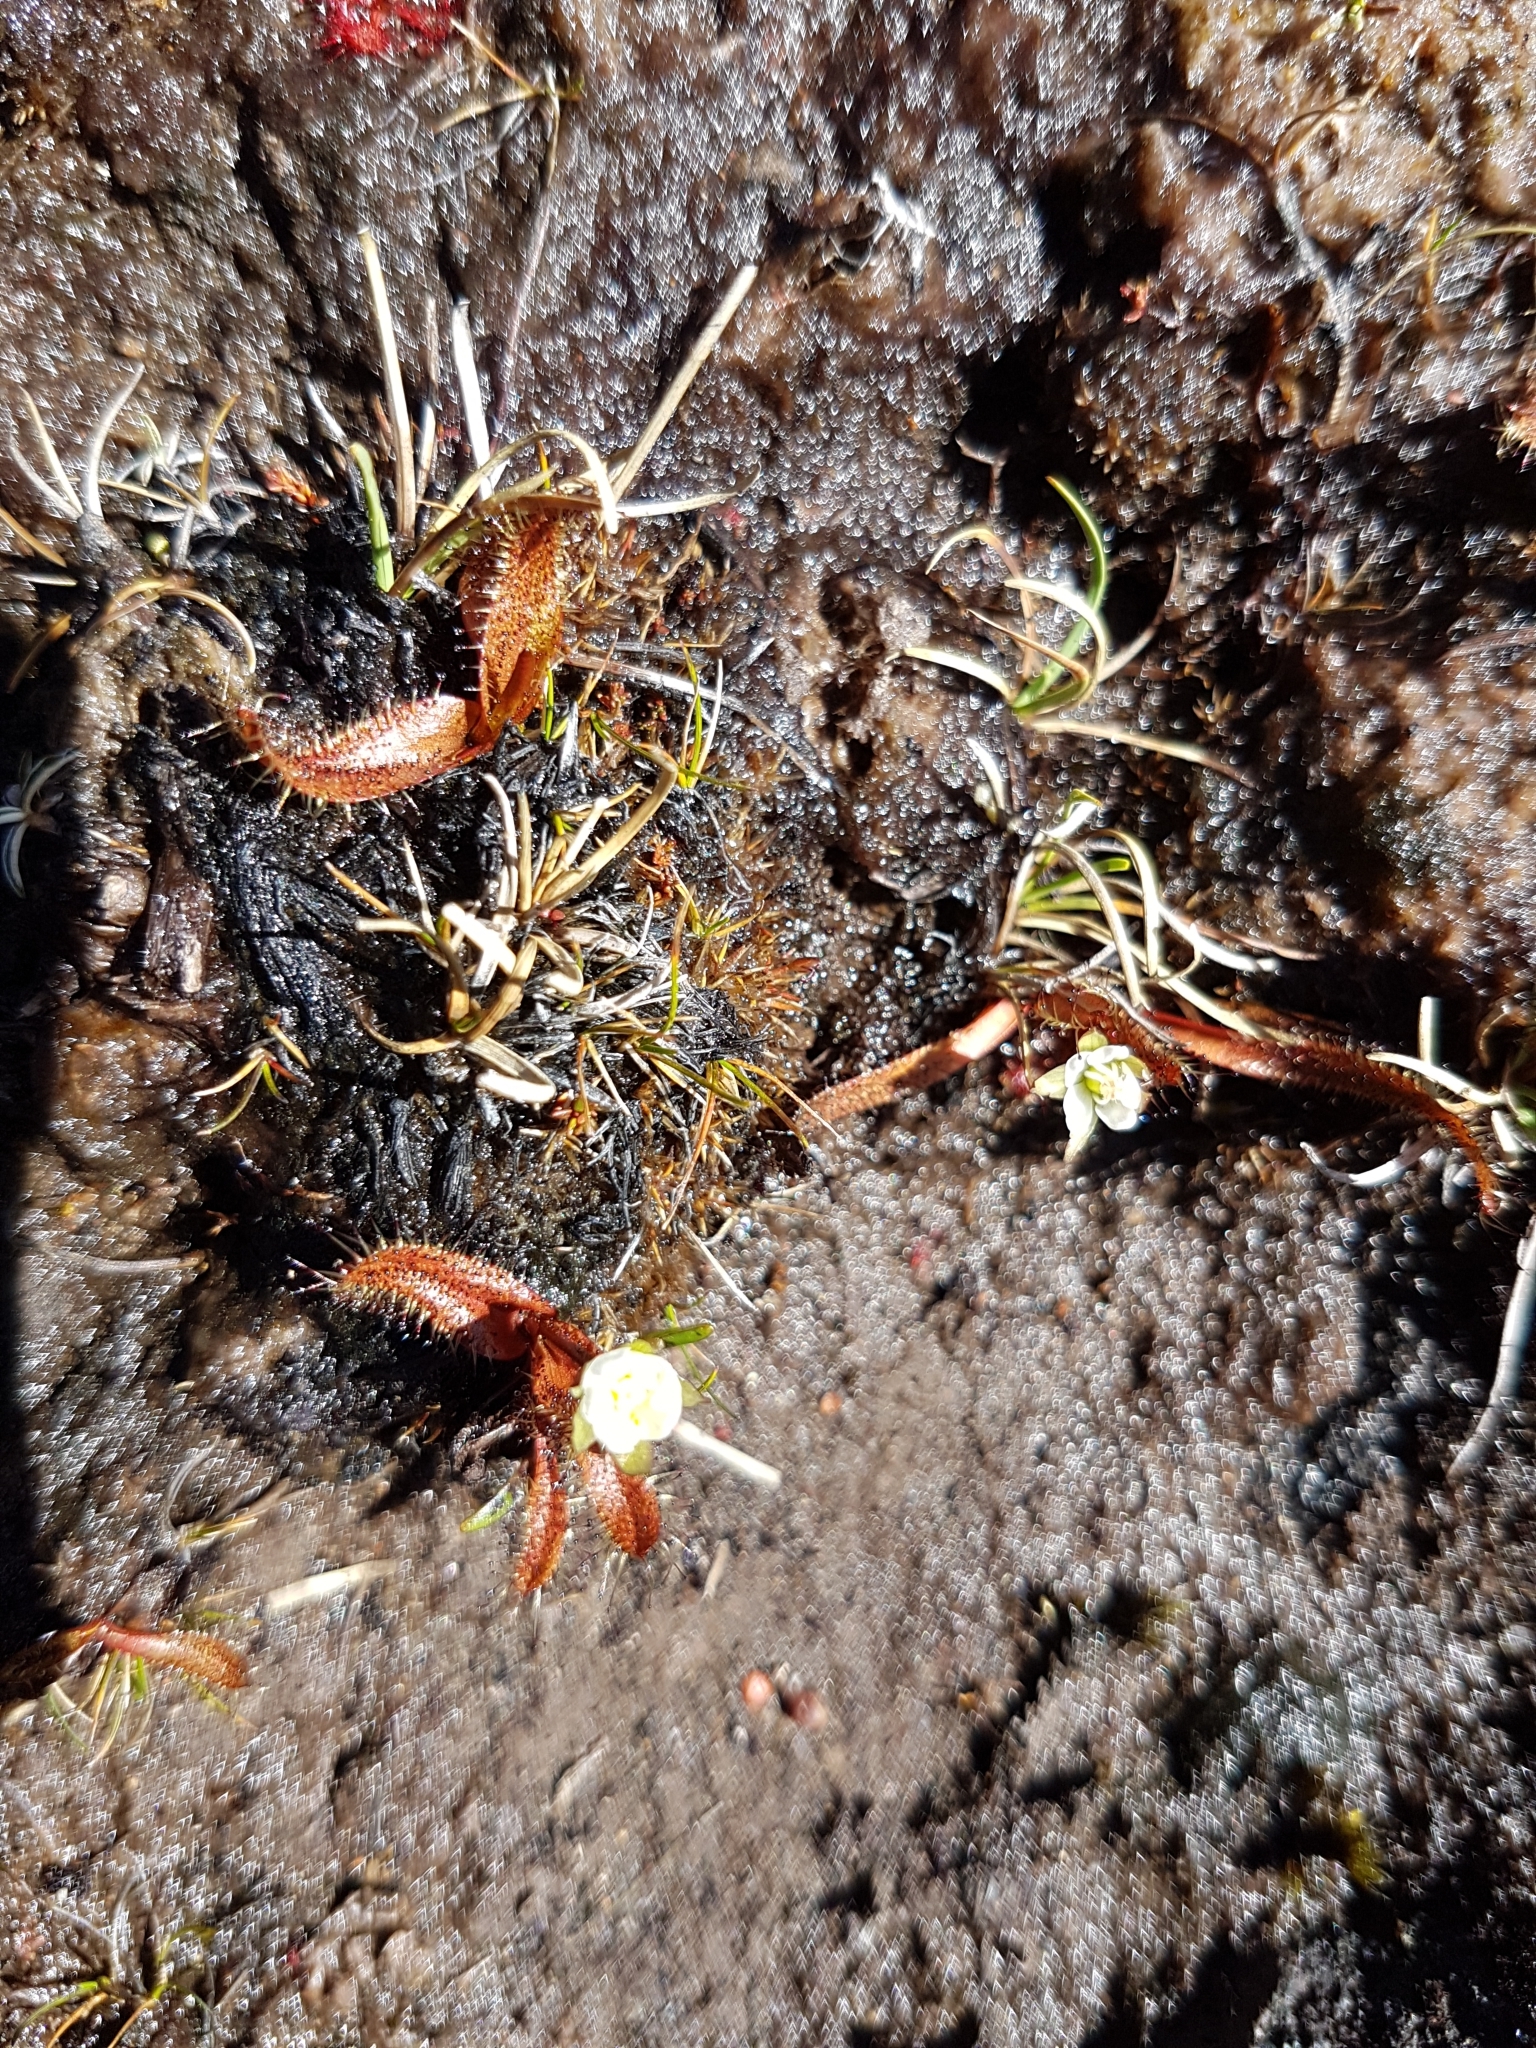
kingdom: Plantae
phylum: Tracheophyta
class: Magnoliopsida
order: Caryophyllales
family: Droseraceae
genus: Drosera
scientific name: Drosera arcturi
